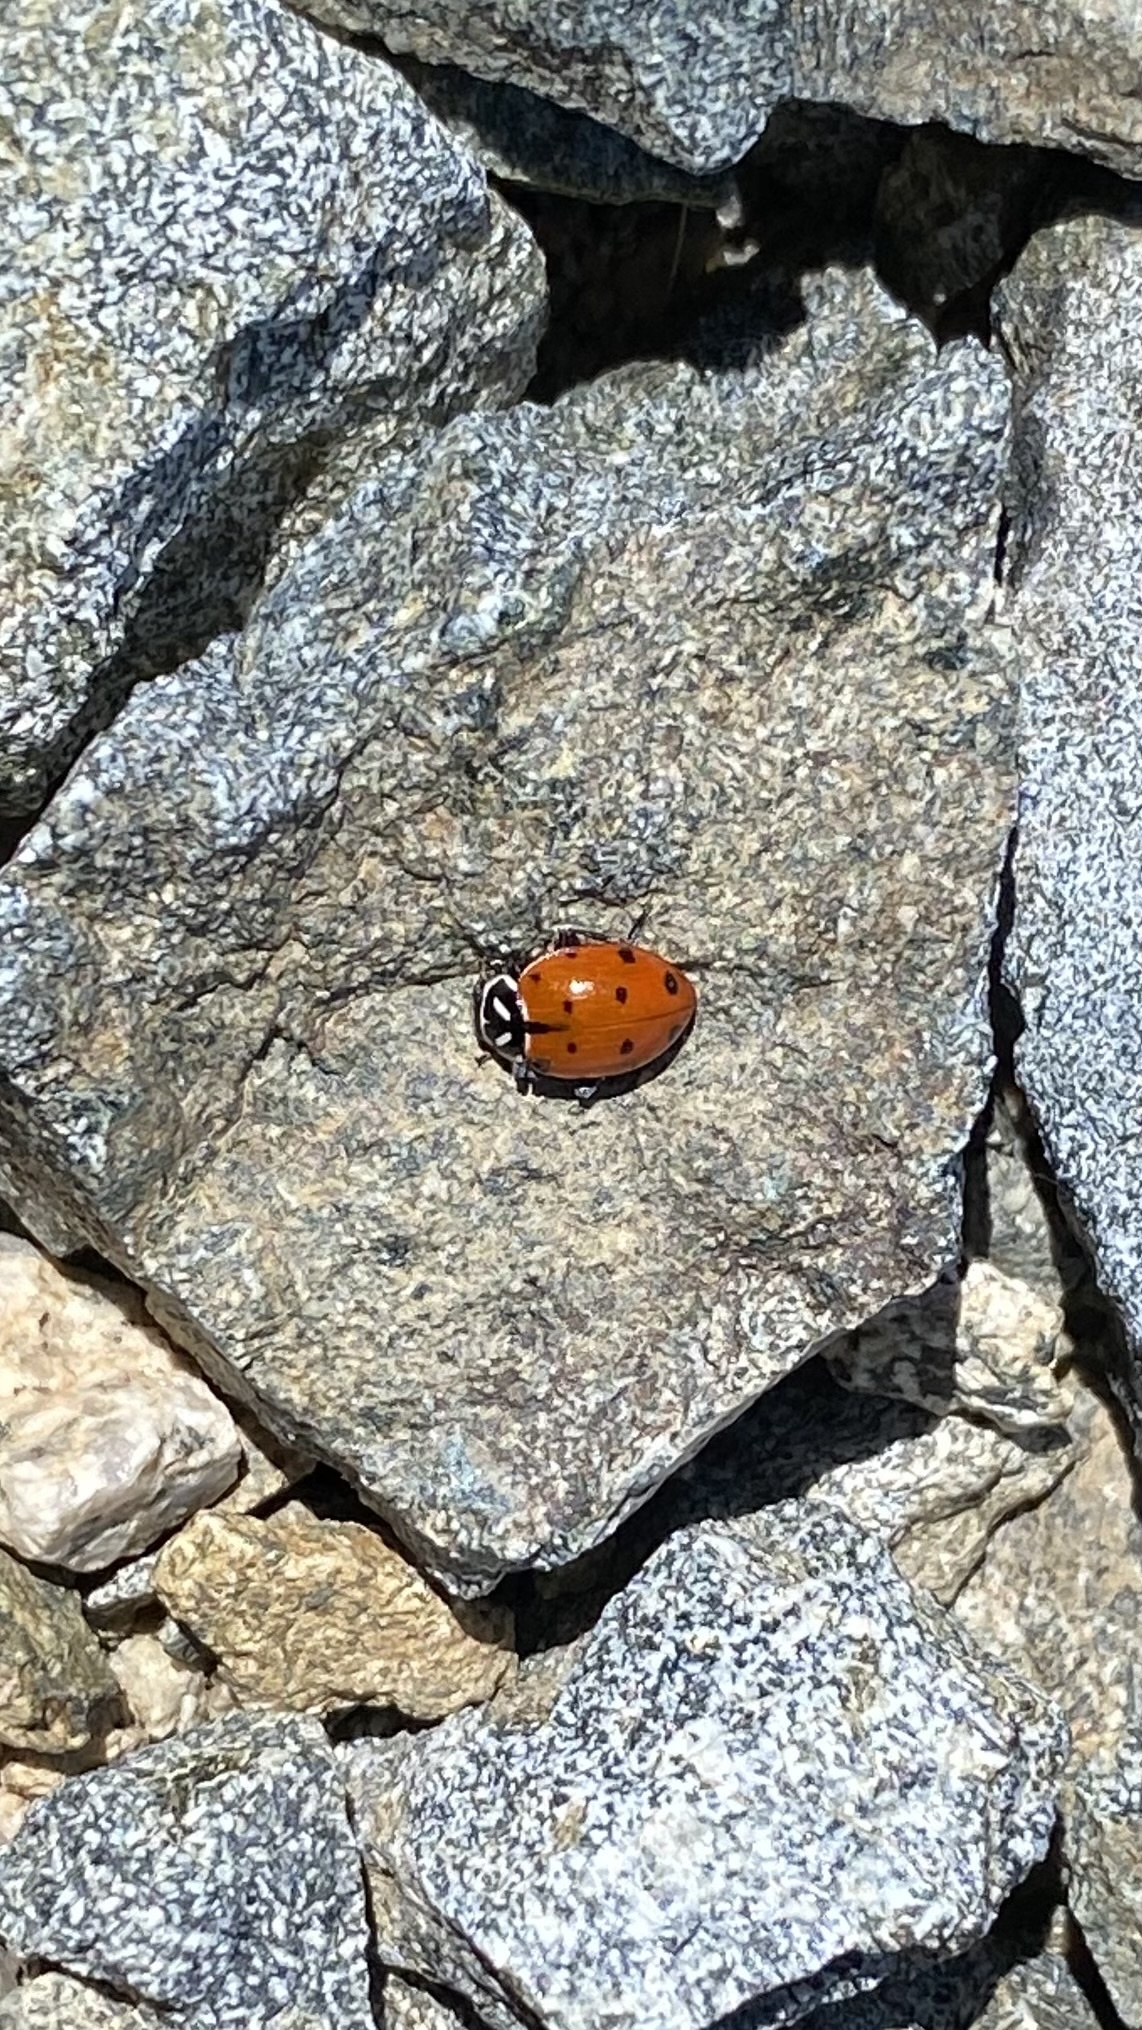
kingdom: Animalia
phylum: Arthropoda
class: Insecta
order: Coleoptera
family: Coccinellidae
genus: Hippodamia
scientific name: Hippodamia convergens
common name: Convergent lady beetle
